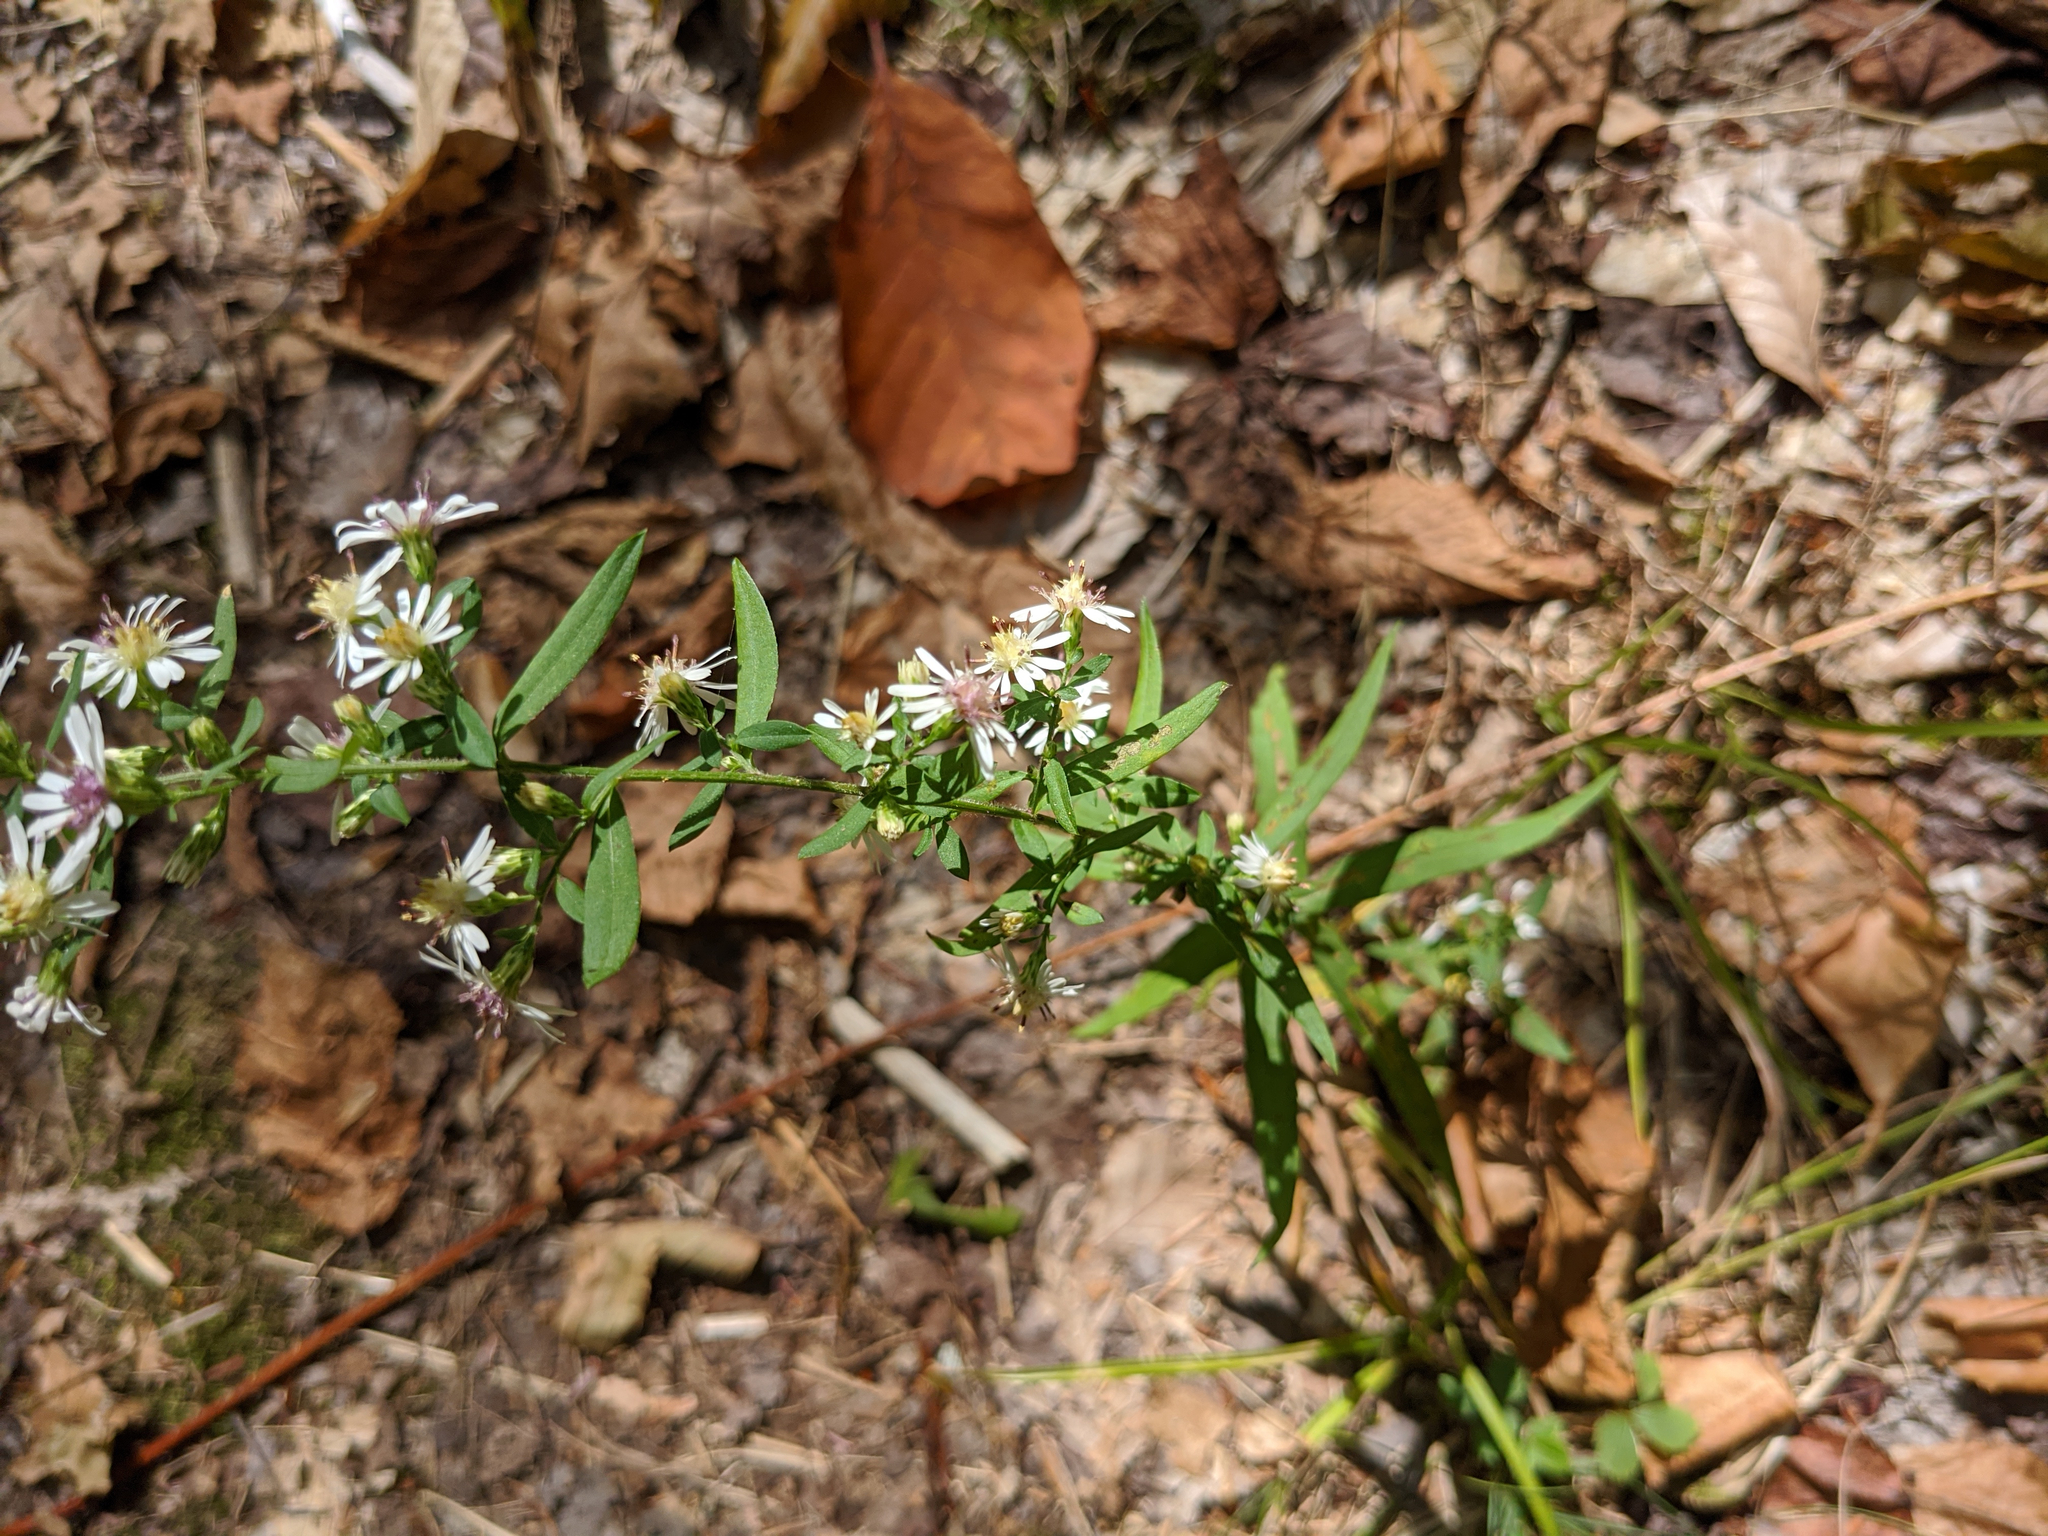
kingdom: Plantae
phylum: Tracheophyta
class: Magnoliopsida
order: Asterales
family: Asteraceae
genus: Symphyotrichum
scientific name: Symphyotrichum lateriflorum
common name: Calico aster
